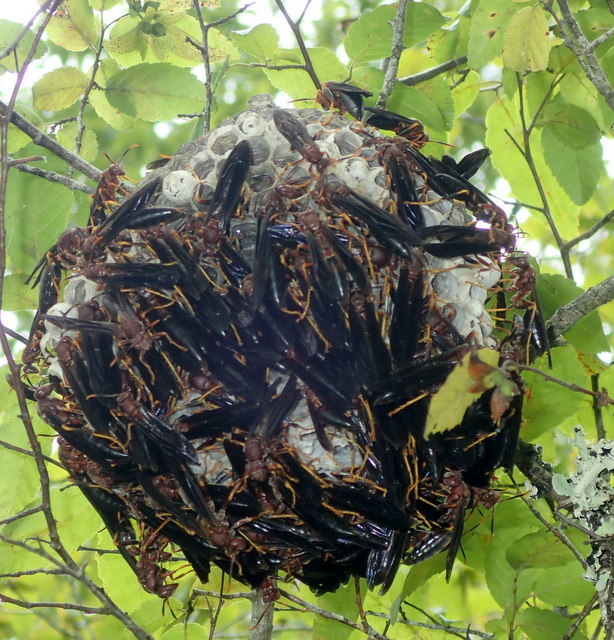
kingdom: Animalia
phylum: Arthropoda
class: Insecta
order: Hymenoptera
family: Eumenidae
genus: Polistes
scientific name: Polistes annularis
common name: Ringed paper wasp
